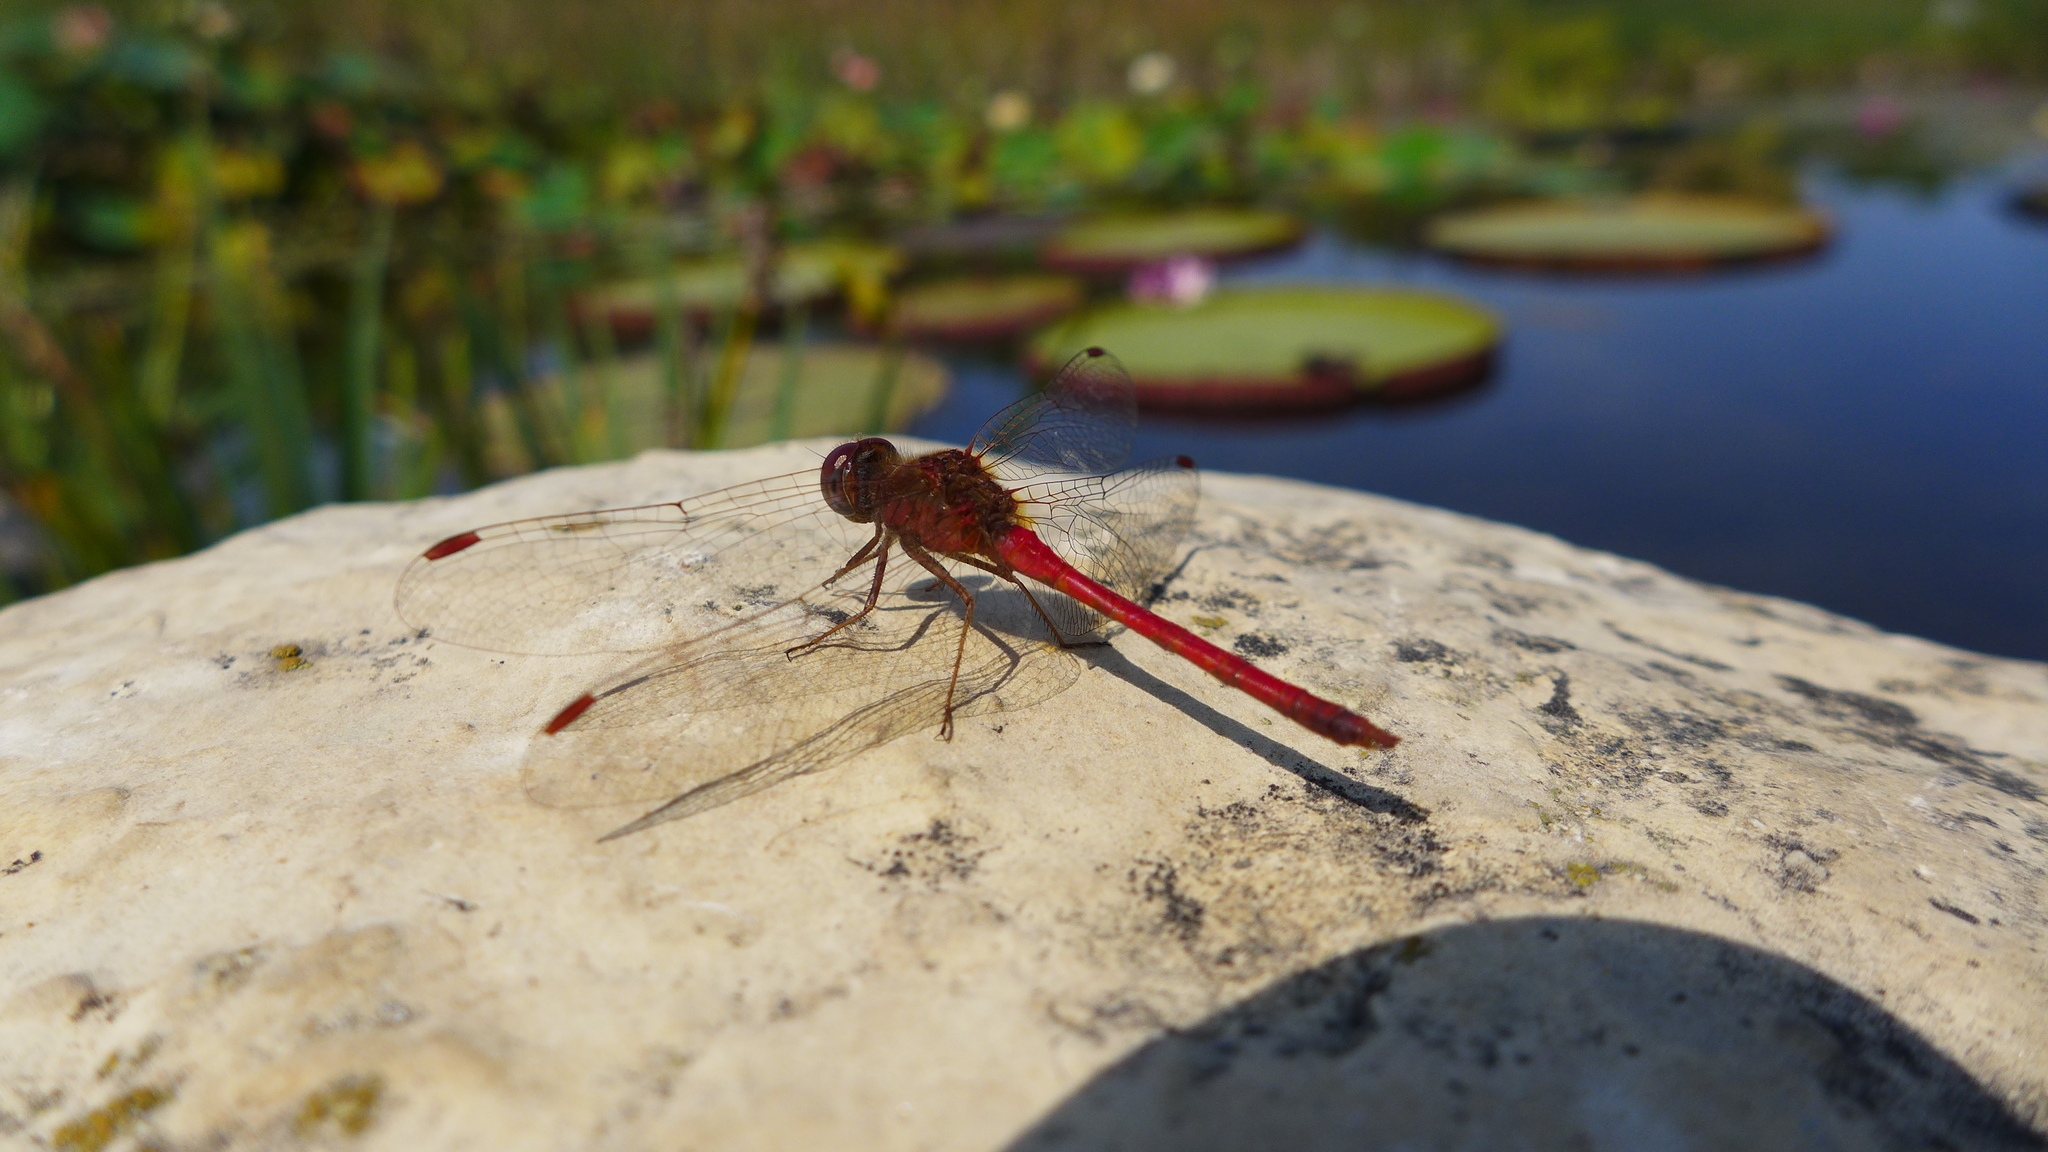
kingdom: Animalia
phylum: Arthropoda
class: Insecta
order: Odonata
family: Libellulidae
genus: Sympetrum
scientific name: Sympetrum vicinum
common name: Autumn meadowhawk
